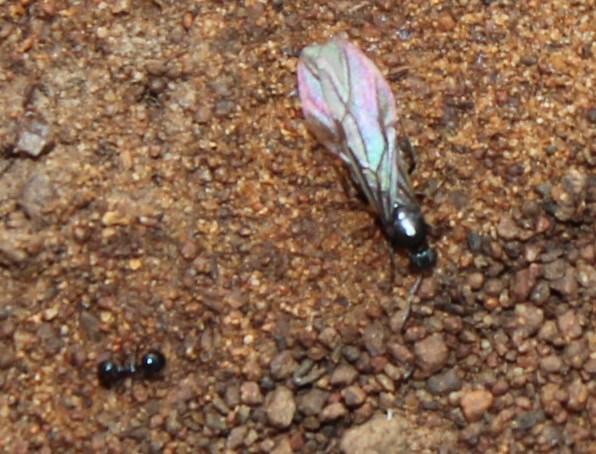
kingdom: Animalia
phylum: Arthropoda
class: Insecta
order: Hymenoptera
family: Formicidae
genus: Tetramorium
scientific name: Tetramorium signatum
